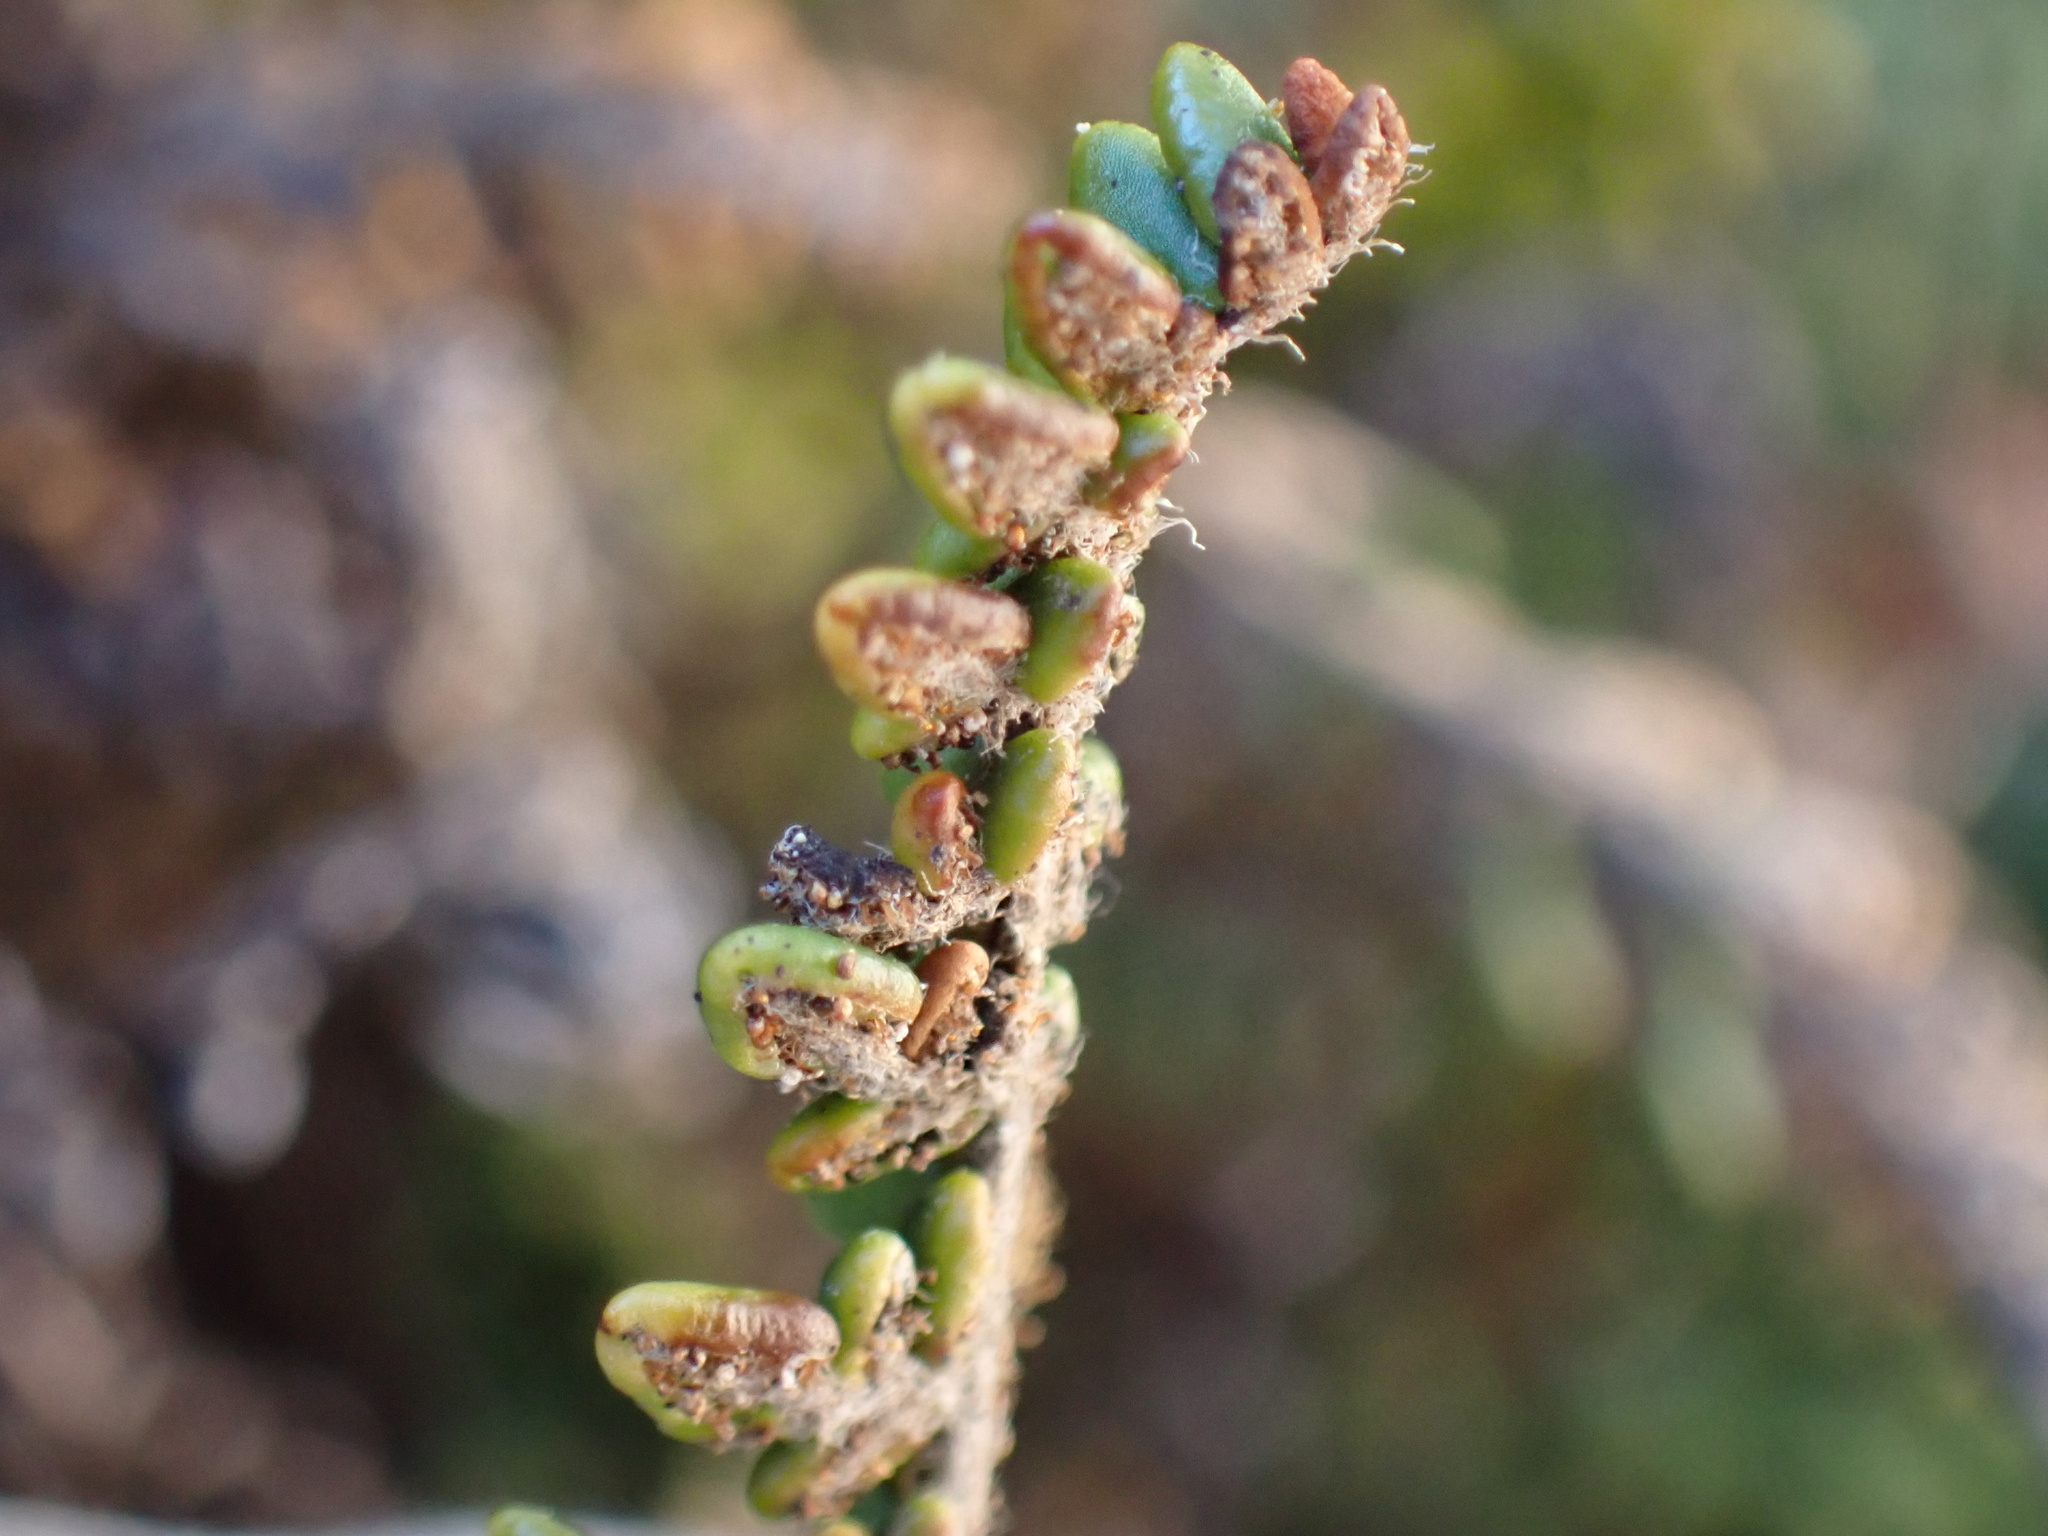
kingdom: Plantae
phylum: Tracheophyta
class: Polypodiopsida
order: Polypodiales
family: Pteridaceae
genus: Myriopteris
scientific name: Myriopteris gracillima
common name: Lace fern
